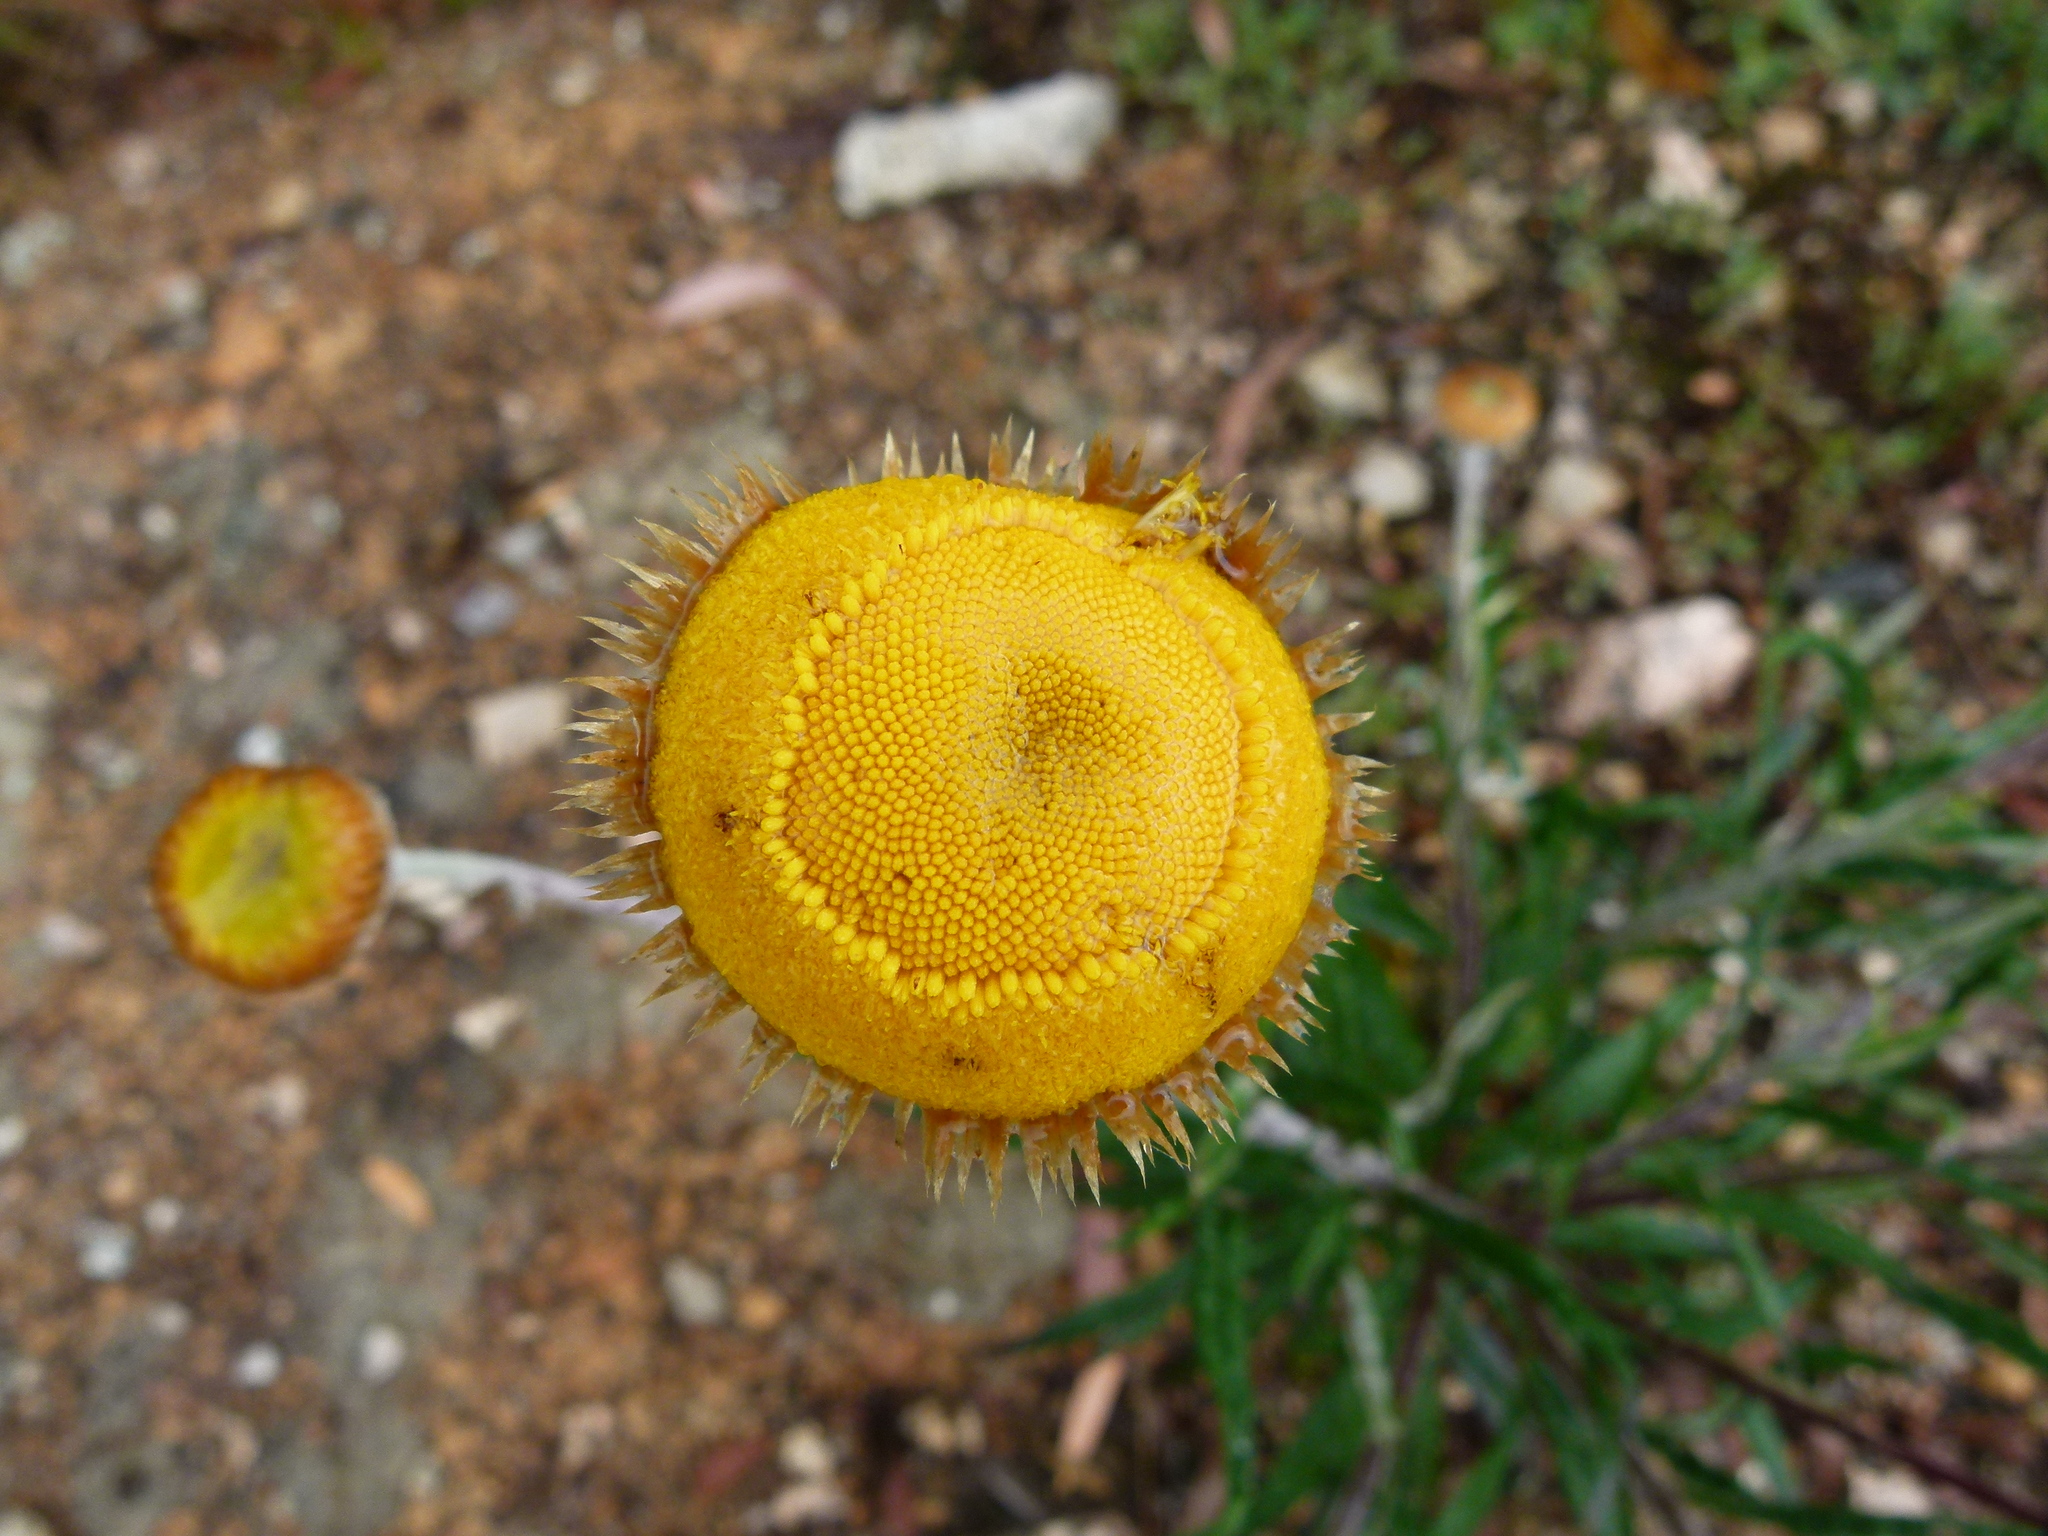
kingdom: Plantae
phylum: Tracheophyta
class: Magnoliopsida
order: Asterales
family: Asteraceae
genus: Coronidium
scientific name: Coronidium rupicola
